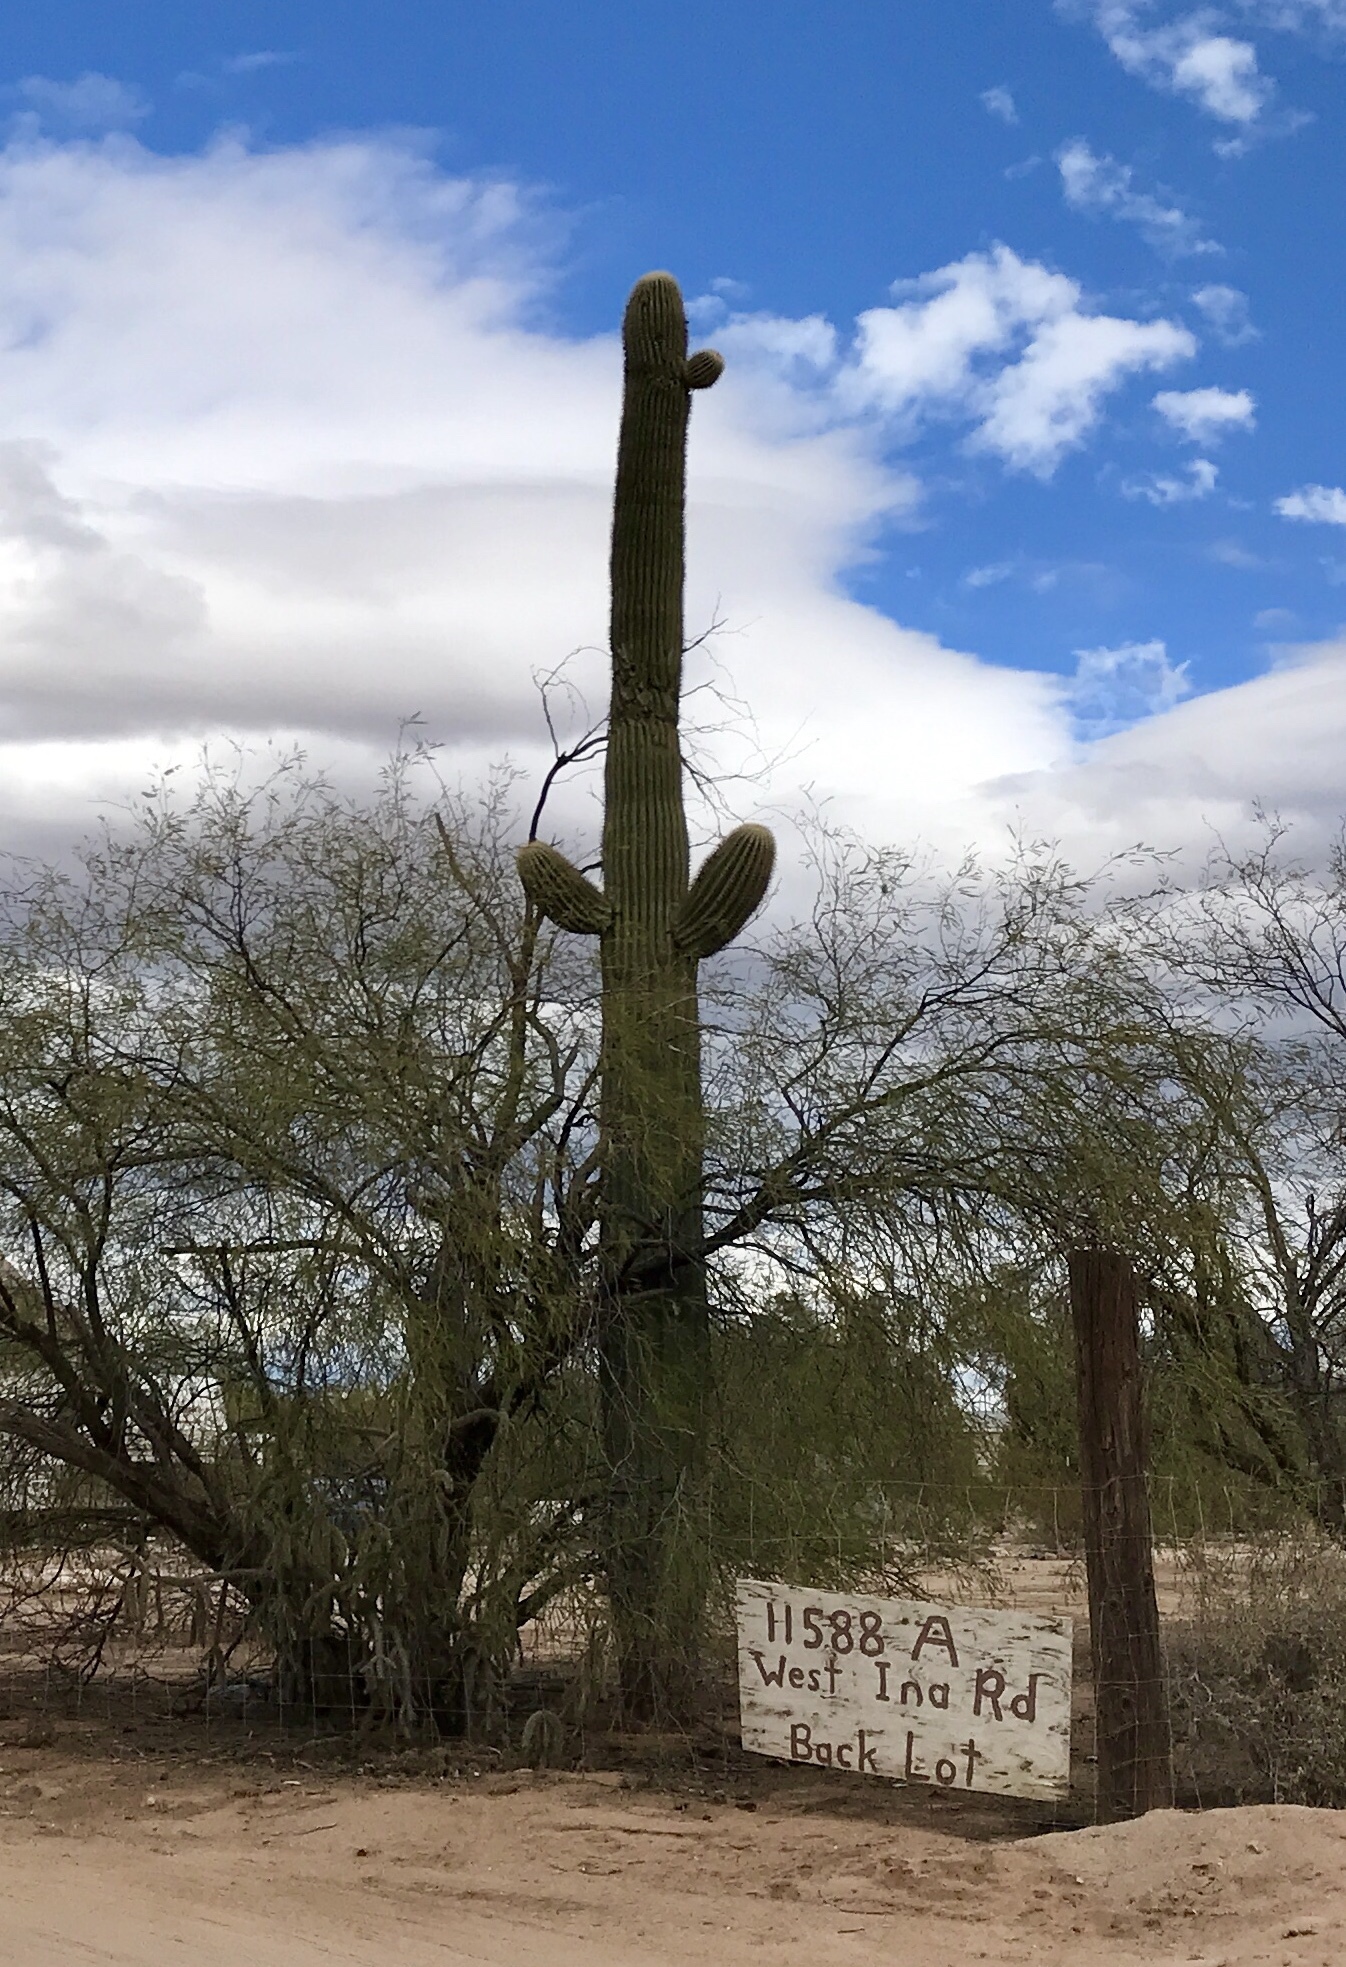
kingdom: Plantae
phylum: Tracheophyta
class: Magnoliopsida
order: Caryophyllales
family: Cactaceae
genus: Carnegiea
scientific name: Carnegiea gigantea
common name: Saguaro
